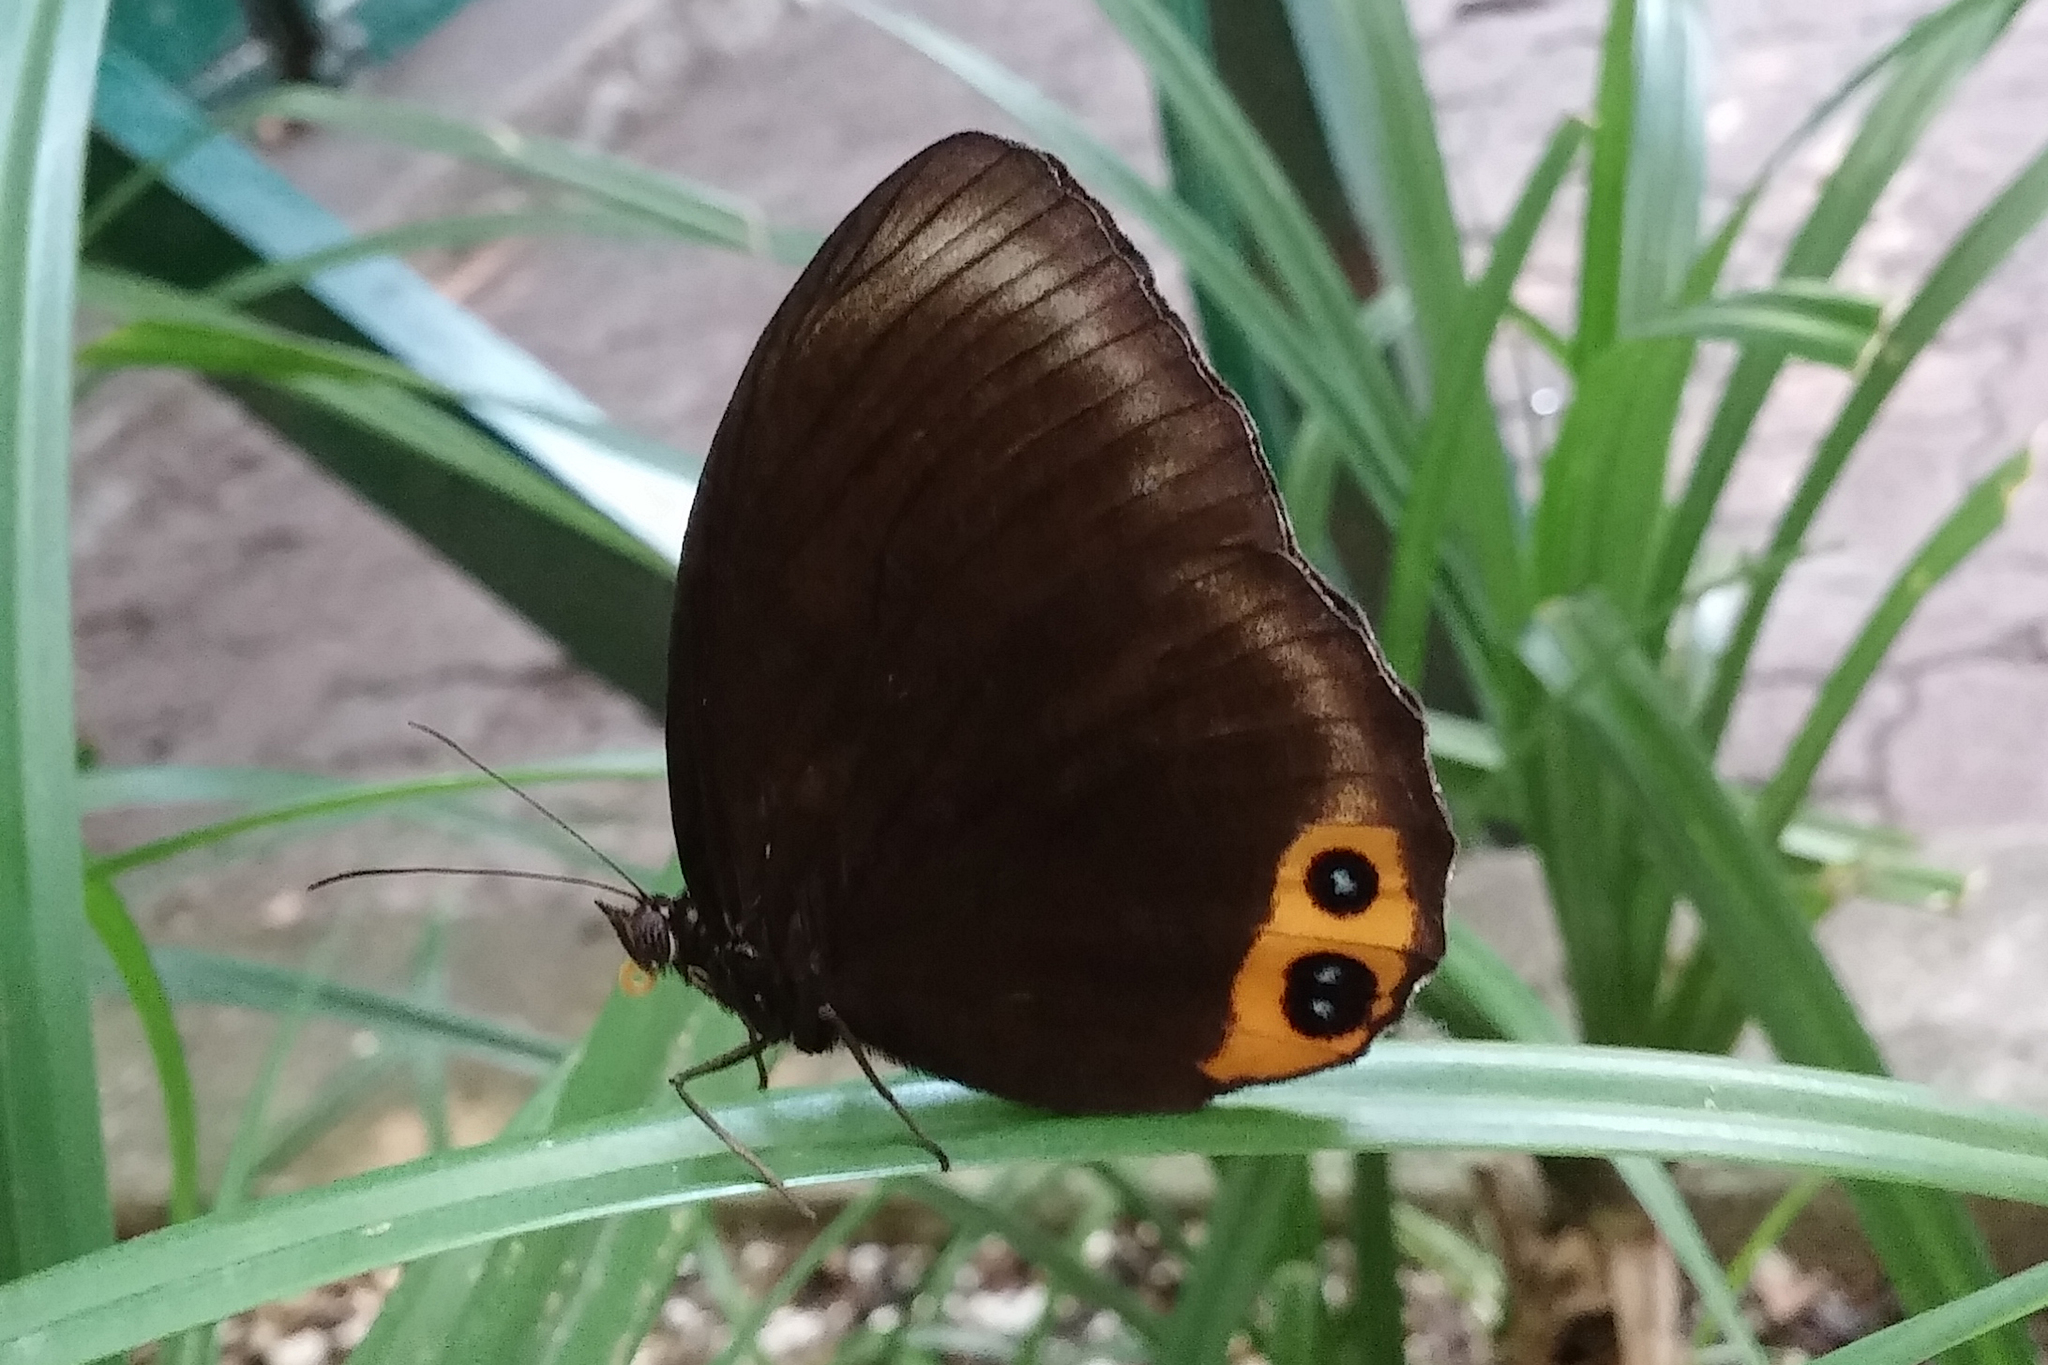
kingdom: Animalia
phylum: Arthropoda
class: Insecta
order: Lepidoptera
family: Nymphalidae
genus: Elymnias
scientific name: Elymnias agondas
